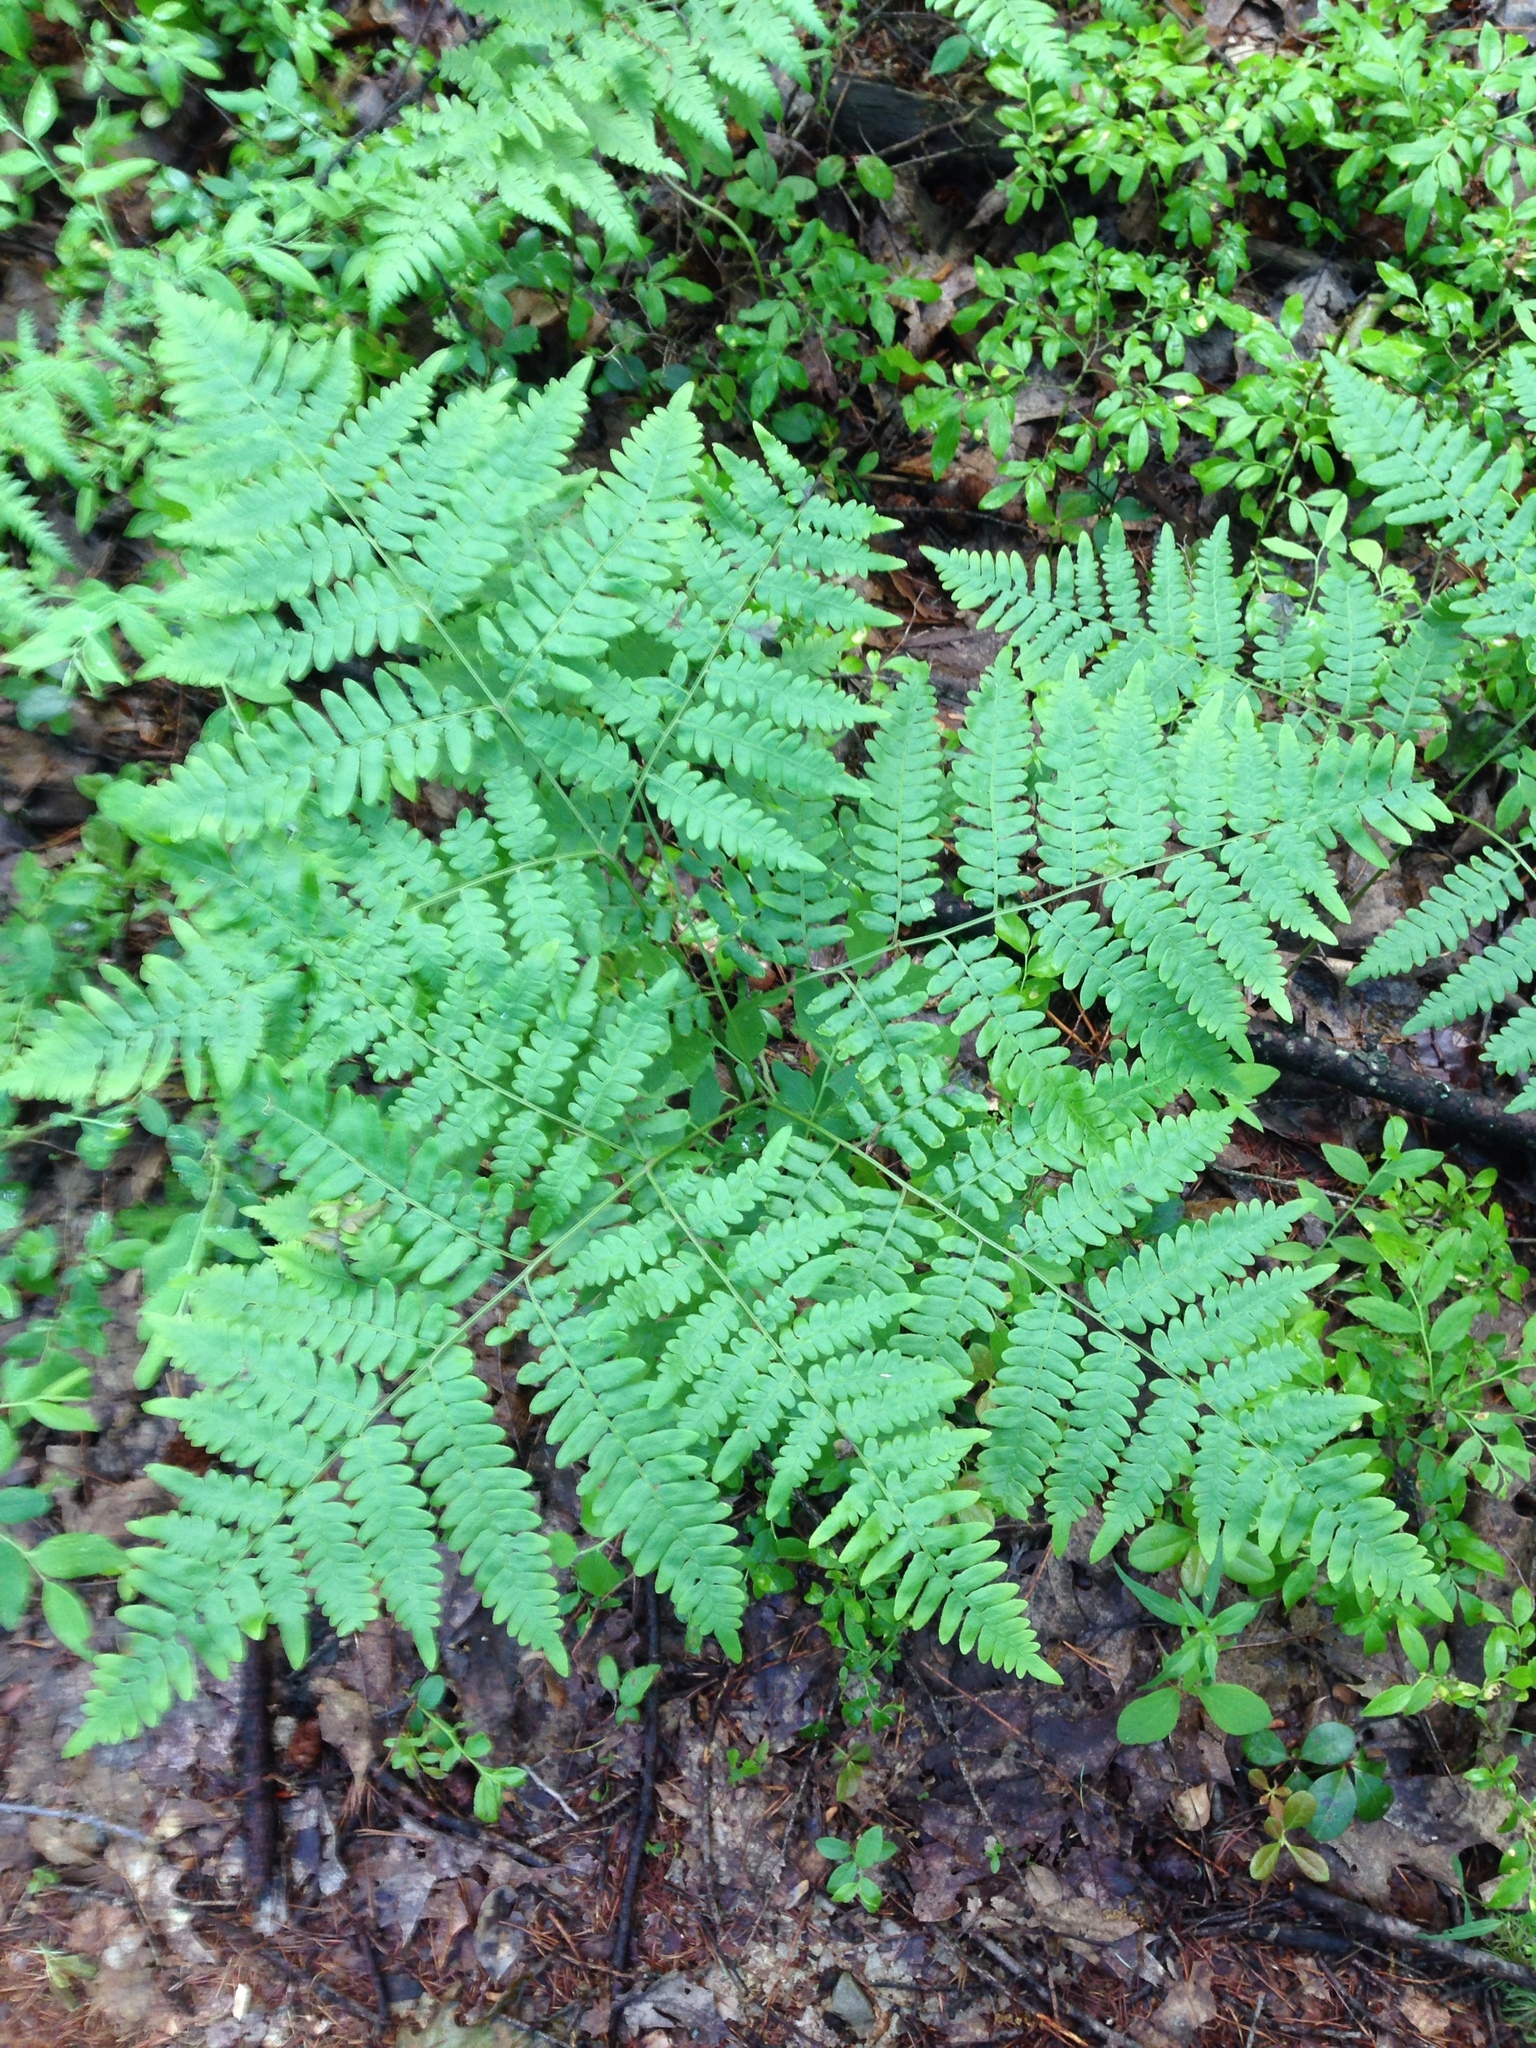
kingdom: Plantae
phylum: Tracheophyta
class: Polypodiopsida
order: Polypodiales
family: Dennstaedtiaceae
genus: Pteridium
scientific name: Pteridium aquilinum
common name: Bracken
